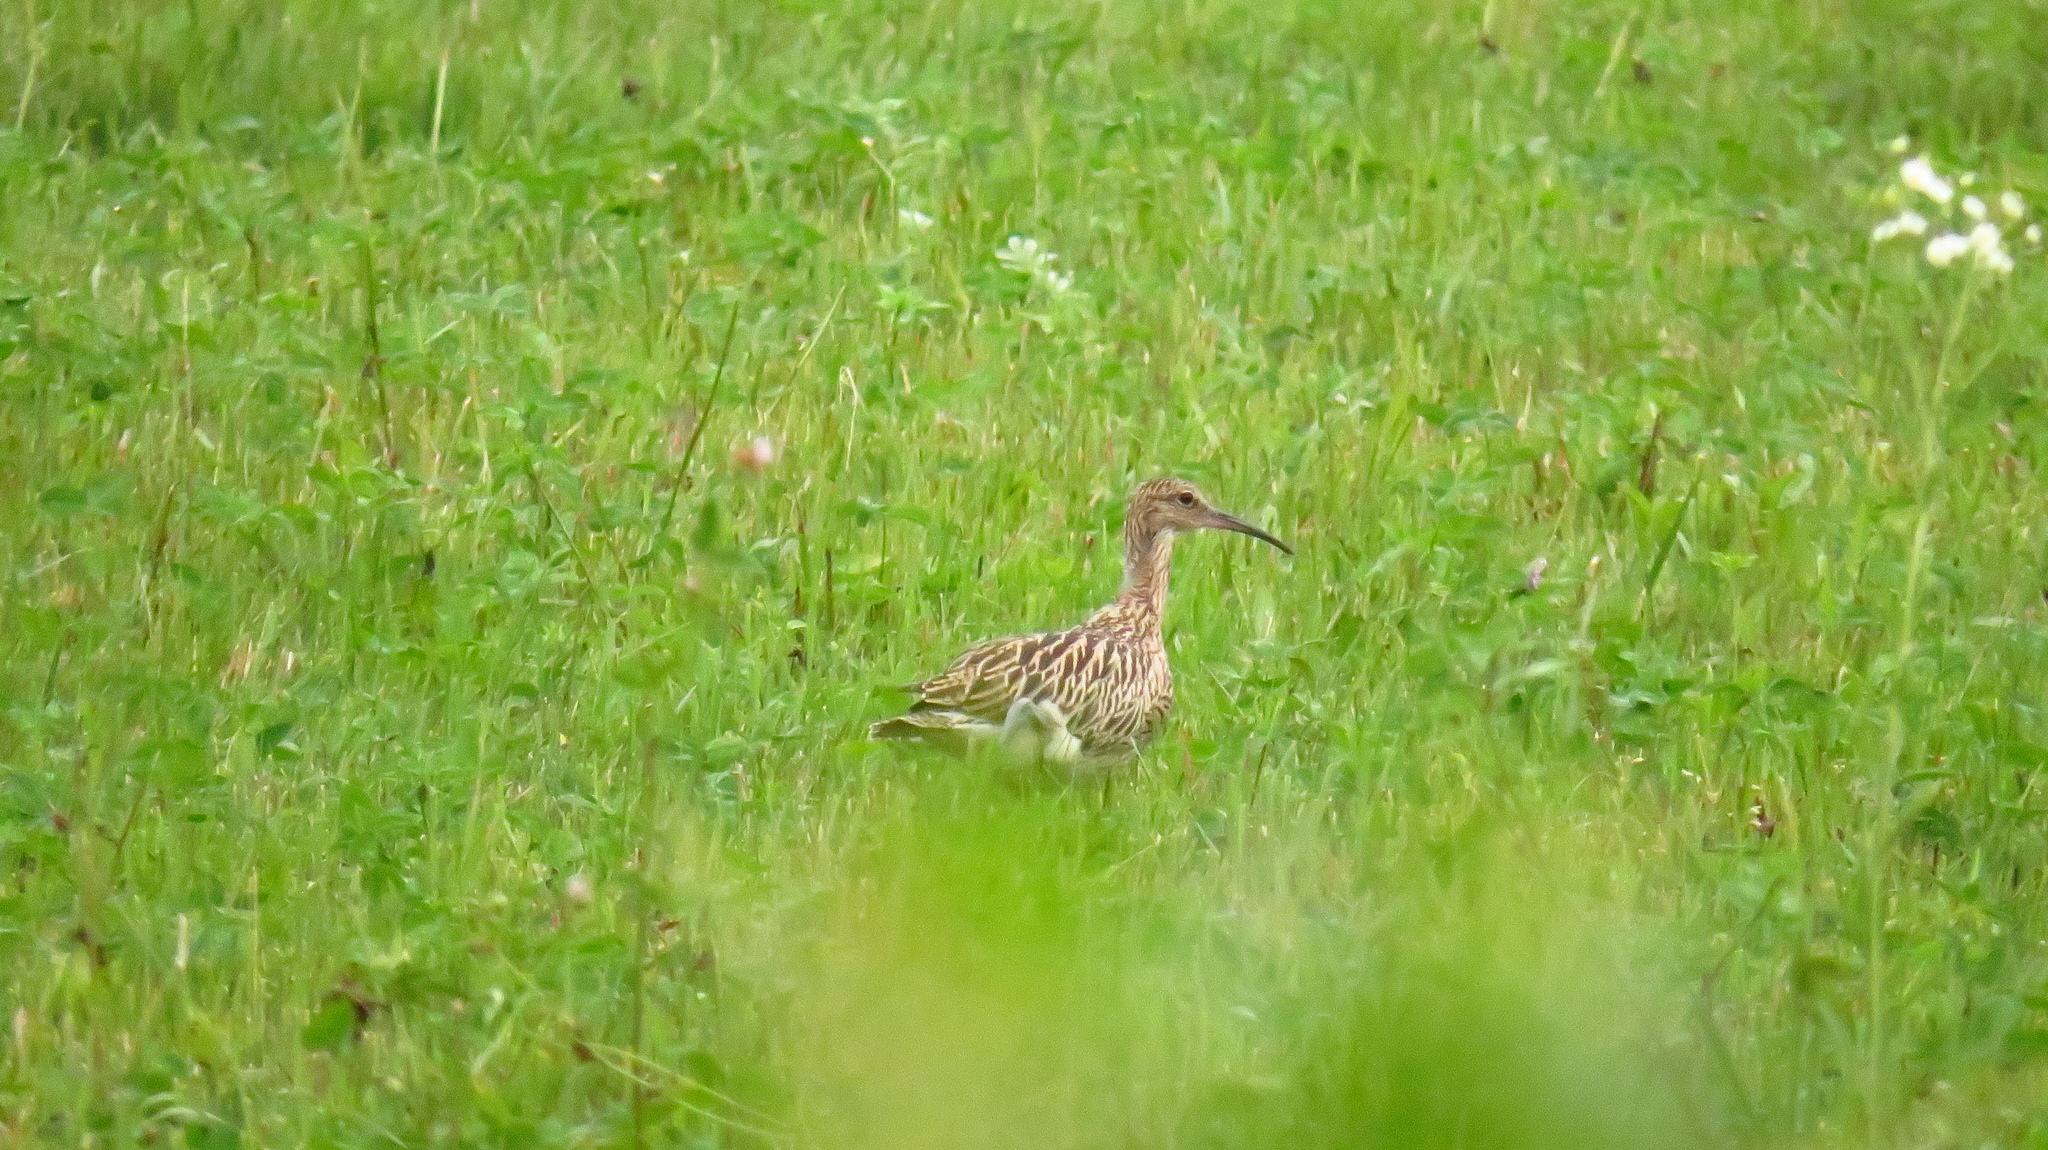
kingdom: Animalia
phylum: Chordata
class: Aves
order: Charadriiformes
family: Scolopacidae
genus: Numenius
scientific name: Numenius arquata
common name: Eurasian curlew
